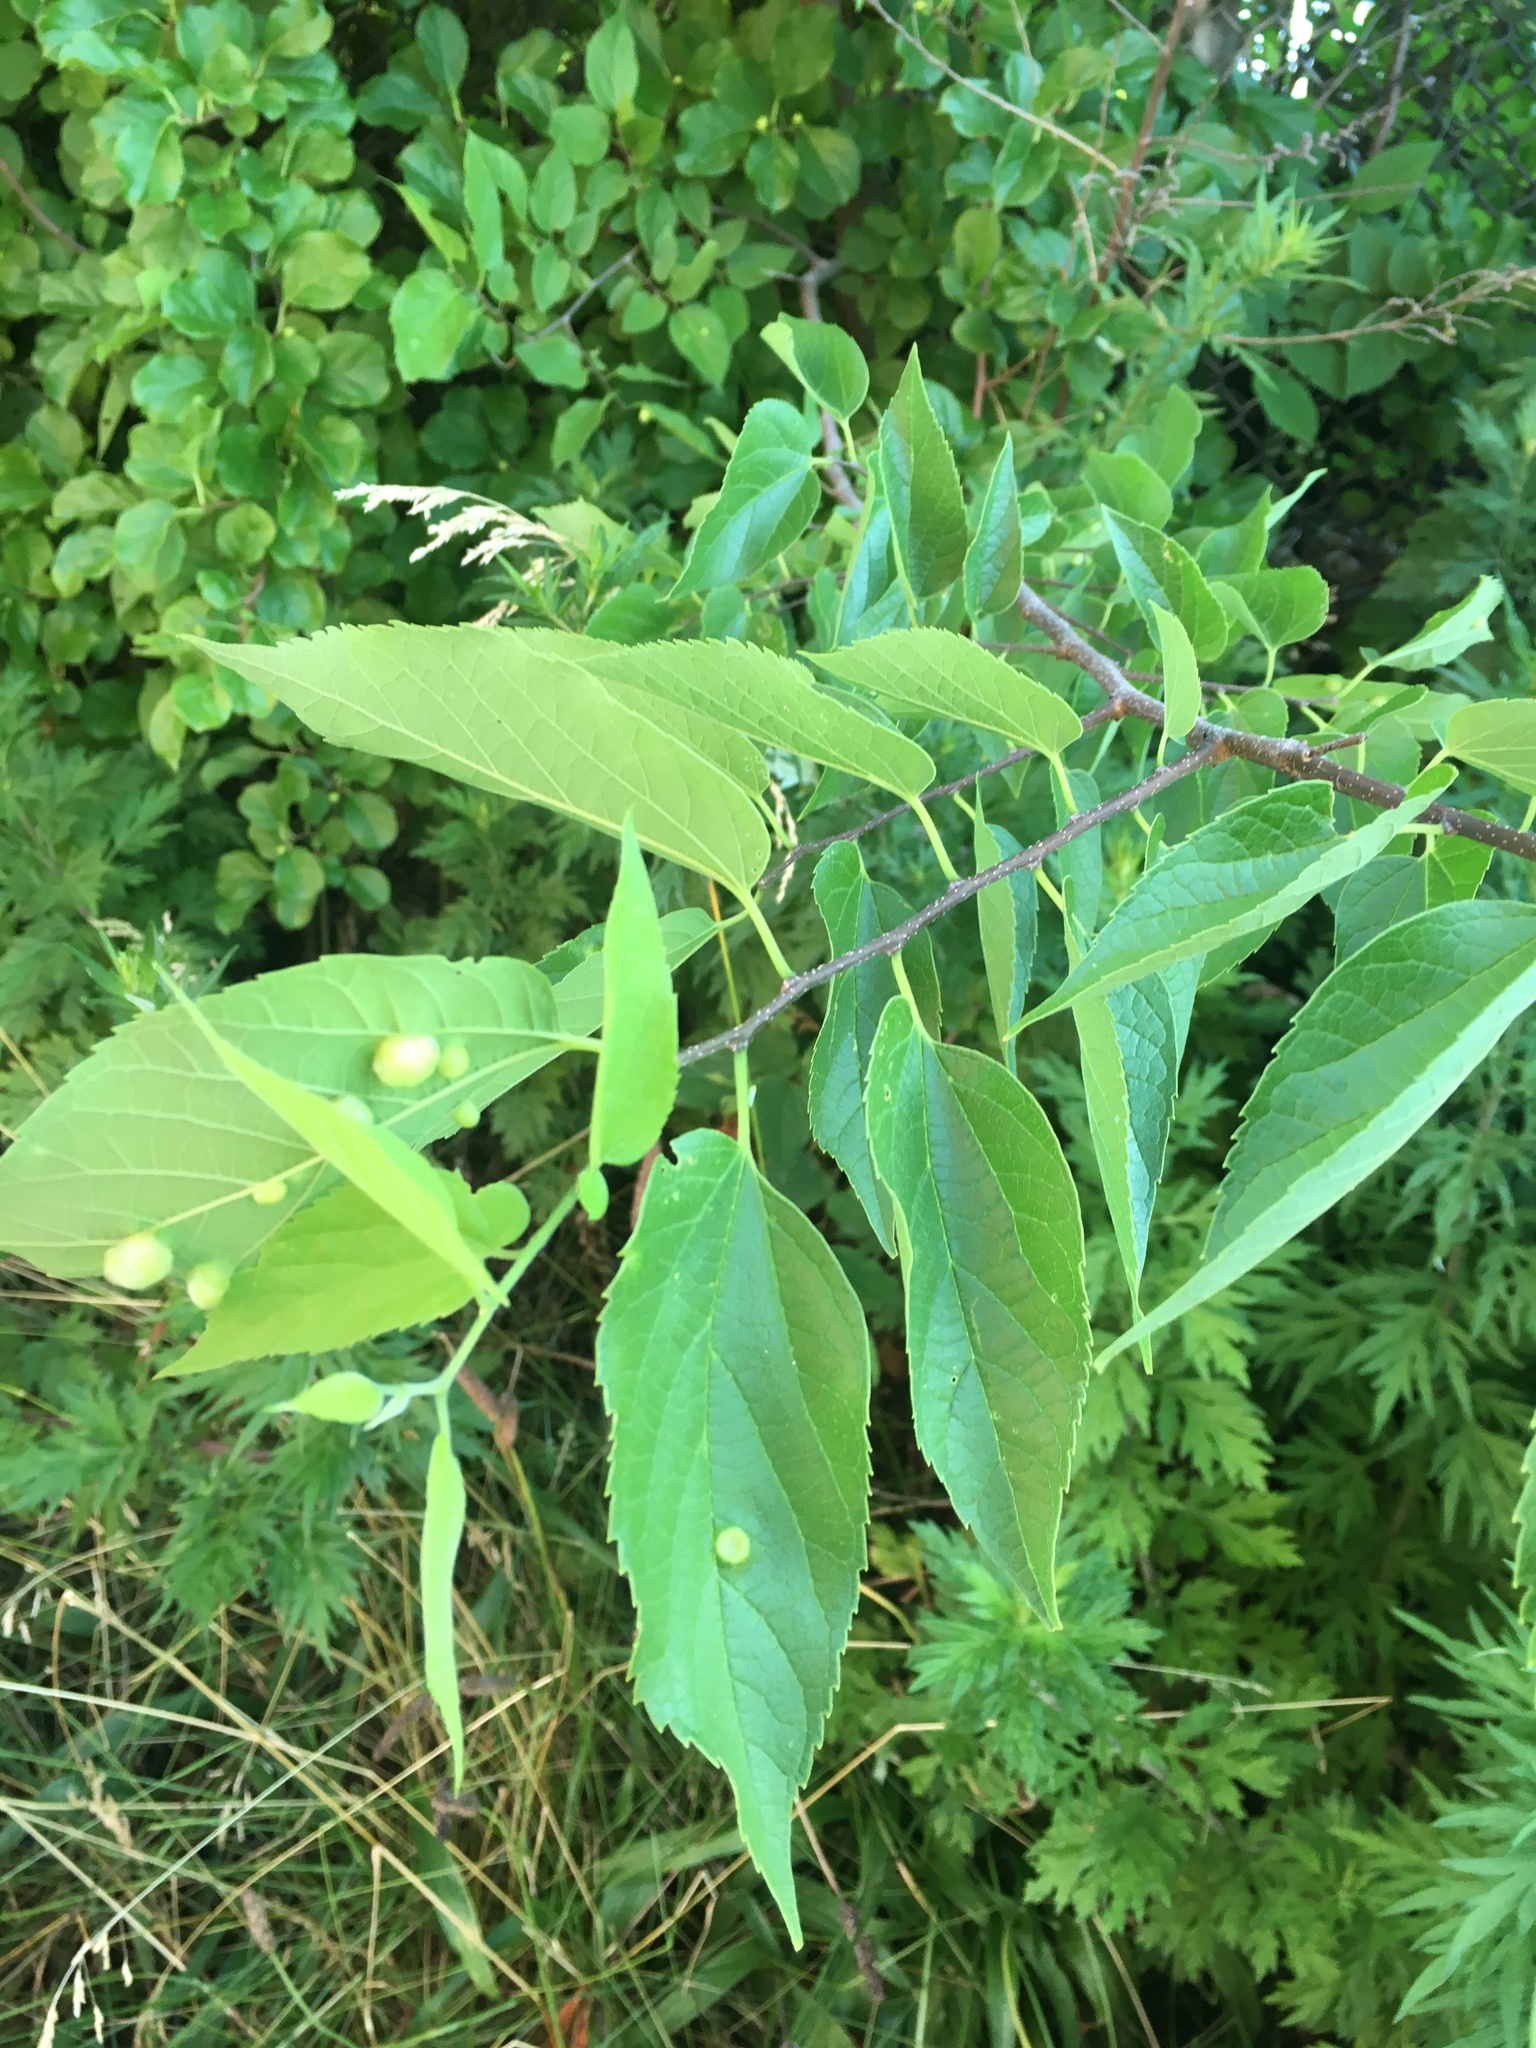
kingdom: Plantae
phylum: Tracheophyta
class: Magnoliopsida
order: Rosales
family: Cannabaceae
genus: Celtis
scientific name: Celtis occidentalis
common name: Common hackberry
